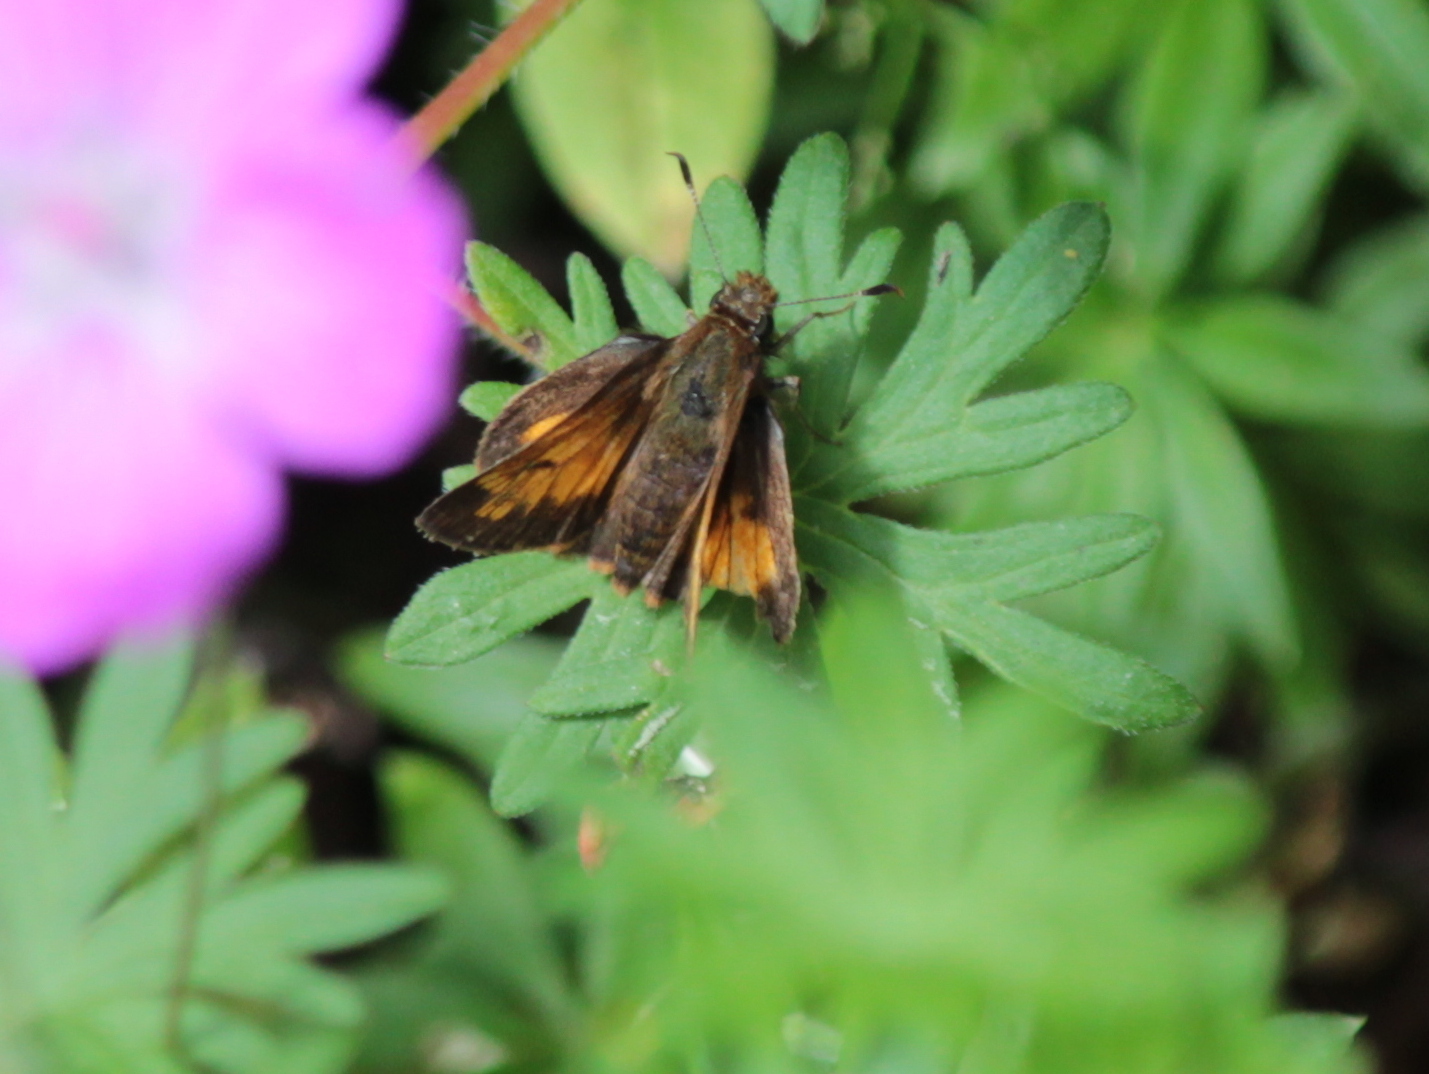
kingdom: Animalia
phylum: Arthropoda
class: Insecta
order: Lepidoptera
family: Hesperiidae
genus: Lon
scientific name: Lon hobomok
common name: Hobomok skipper
